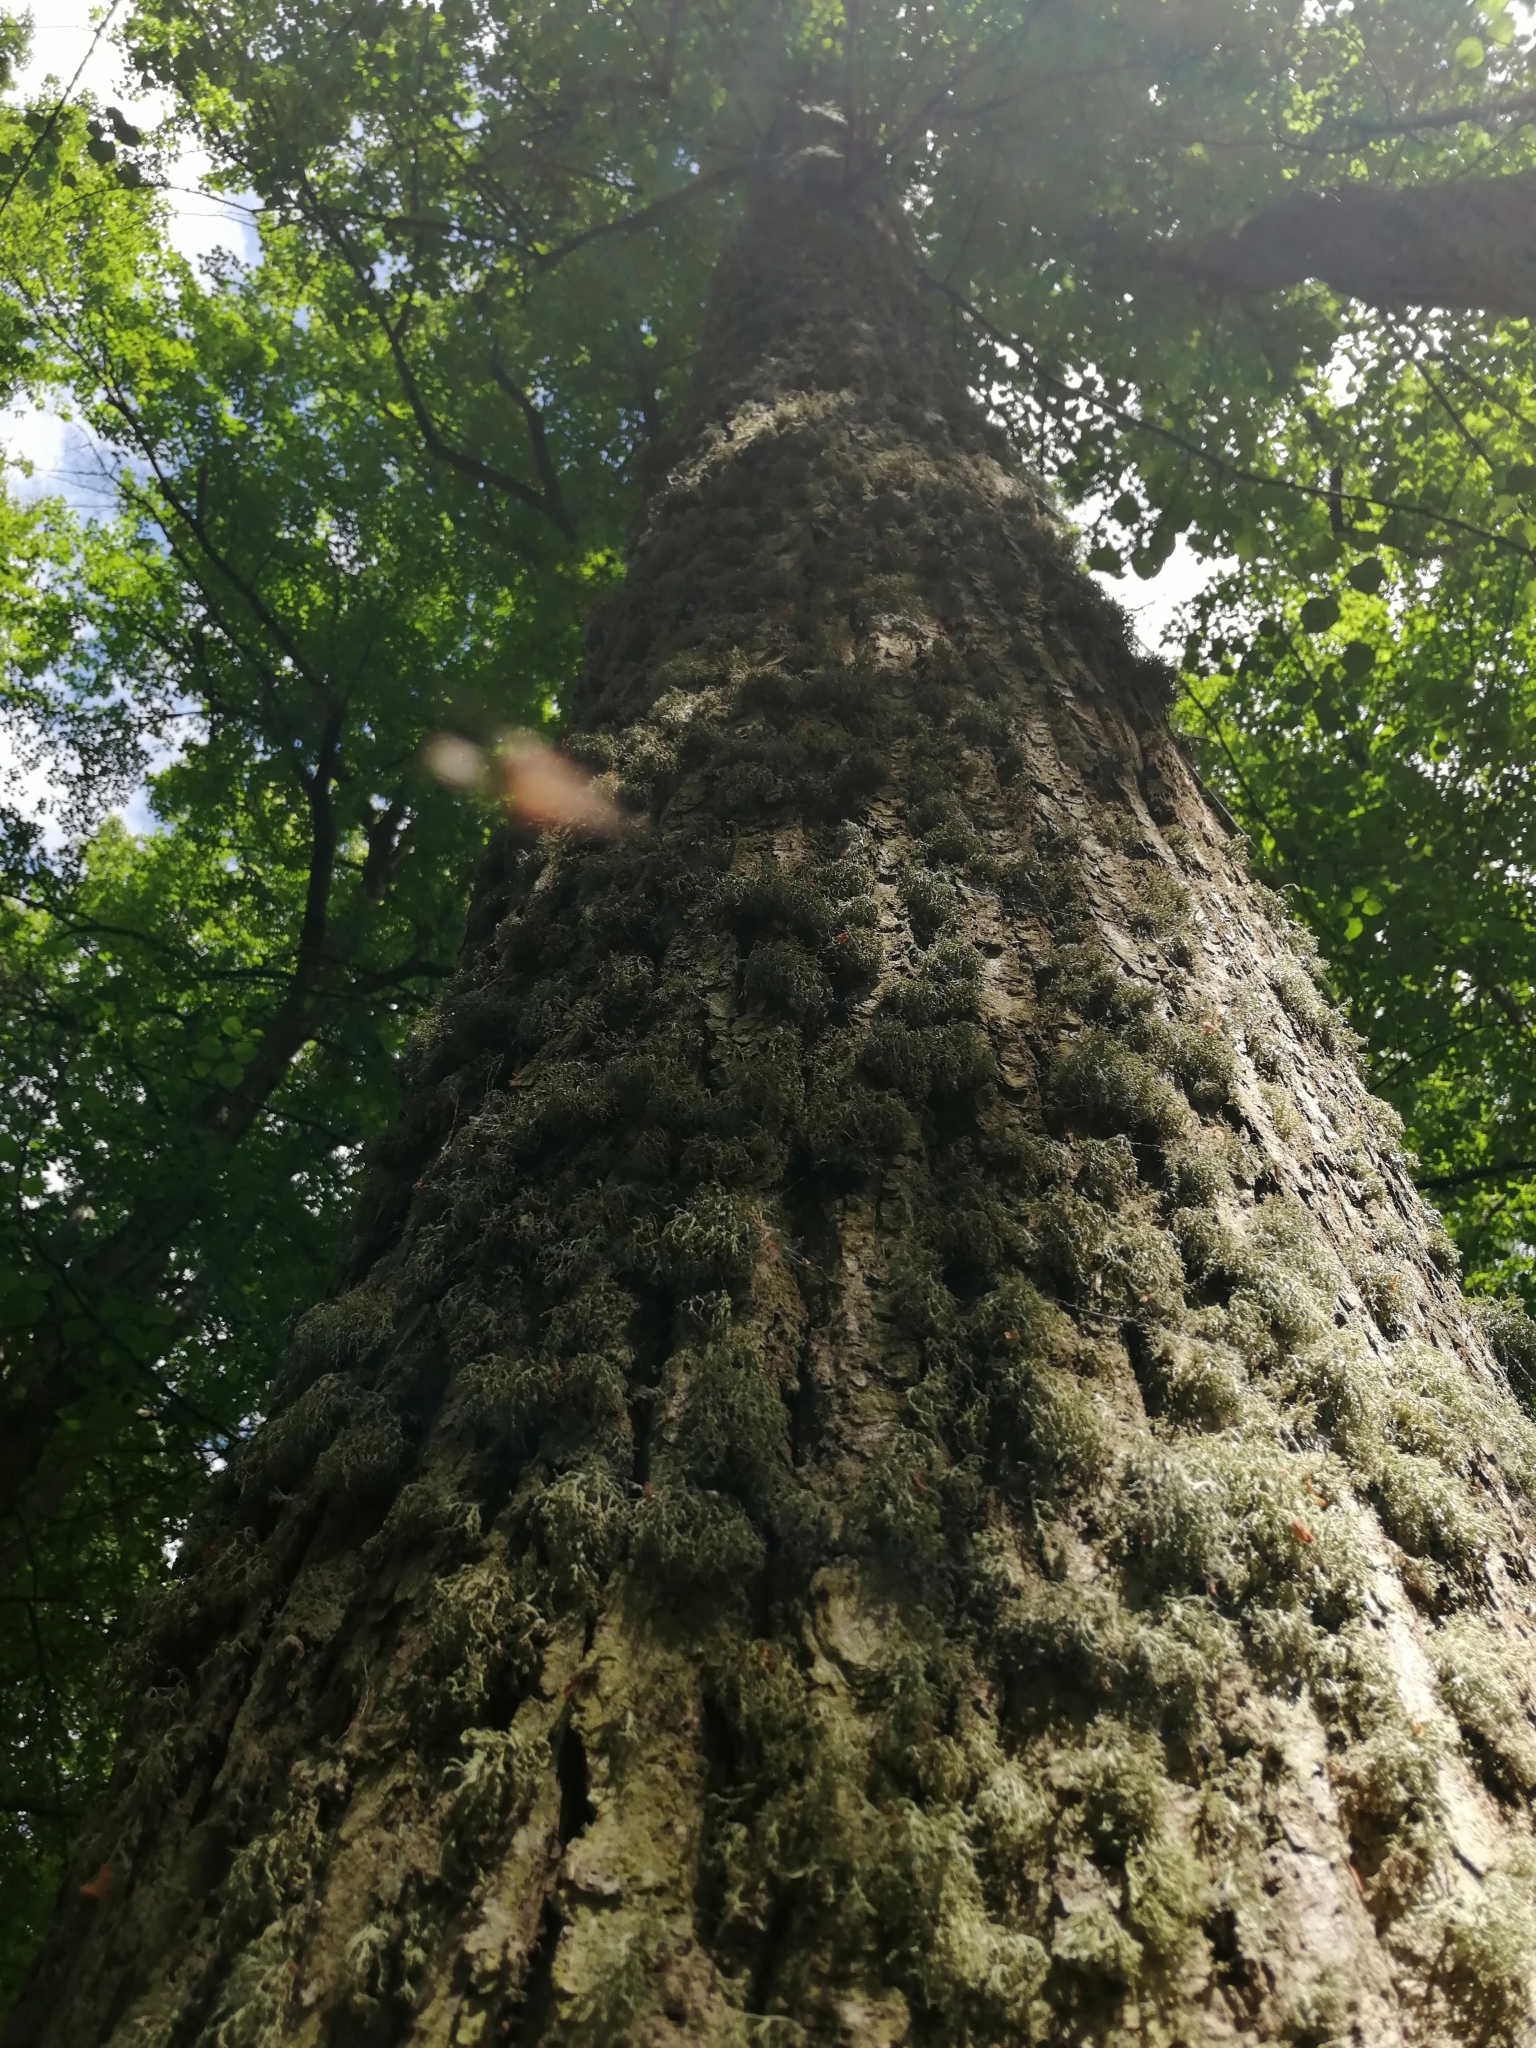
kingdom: Fungi
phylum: Ascomycota
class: Lecanoromycetes
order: Lecanorales
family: Parmeliaceae
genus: Evernia
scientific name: Evernia prunastri
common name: Oak moss
